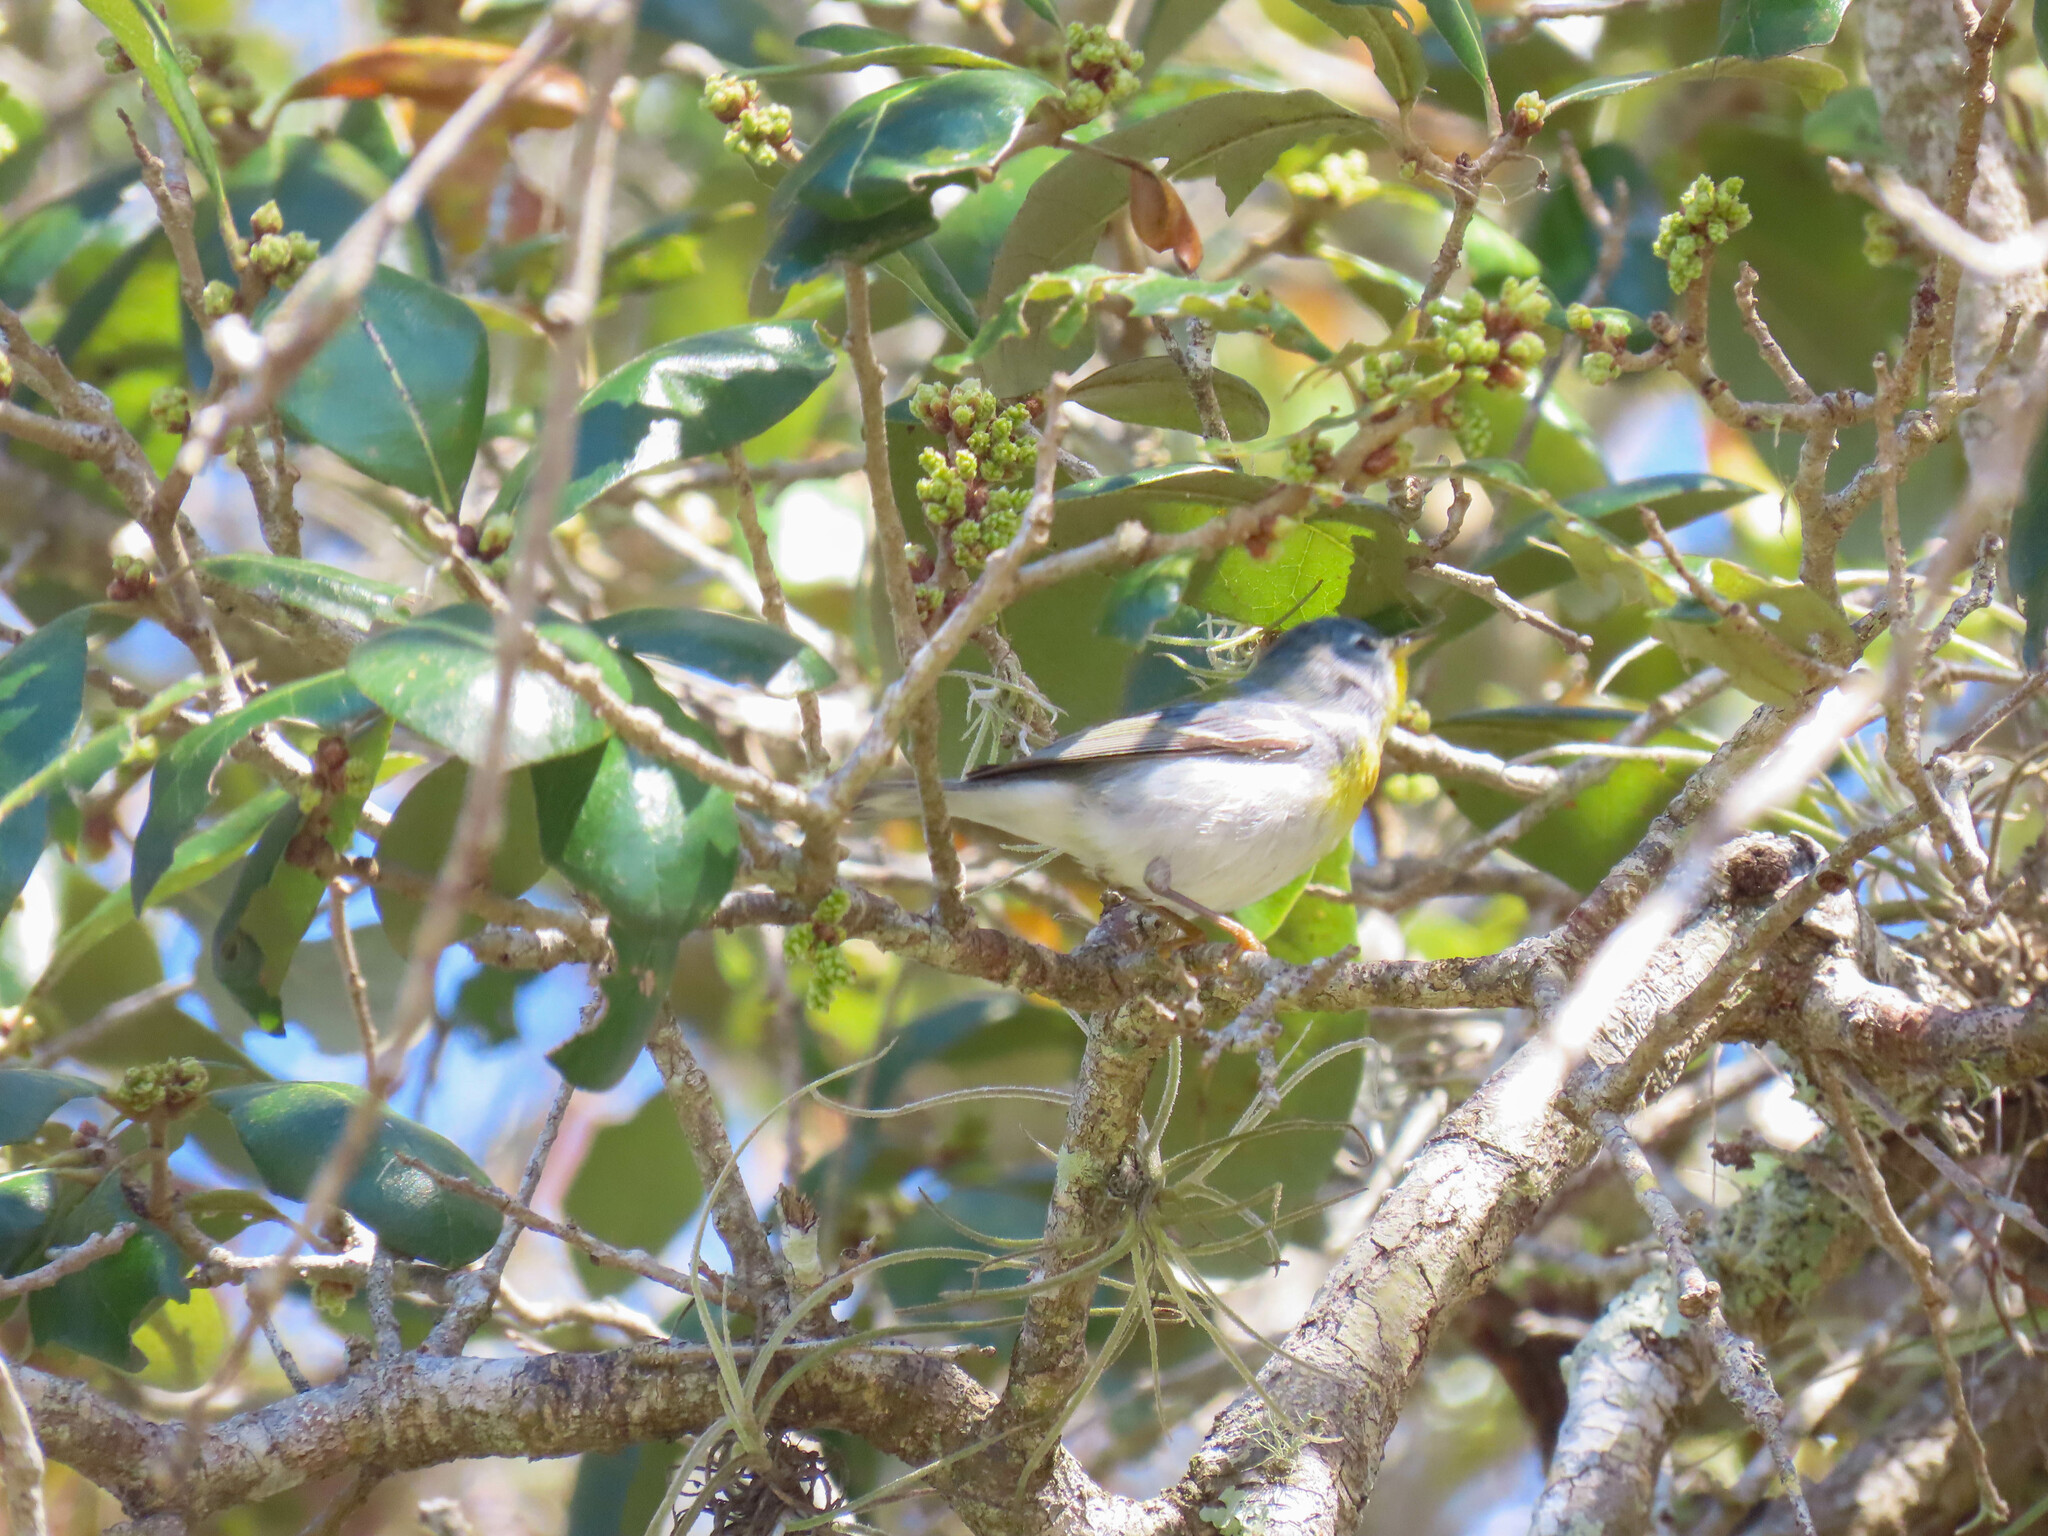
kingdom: Animalia
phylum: Chordata
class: Aves
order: Passeriformes
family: Parulidae
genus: Setophaga
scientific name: Setophaga americana
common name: Northern parula
